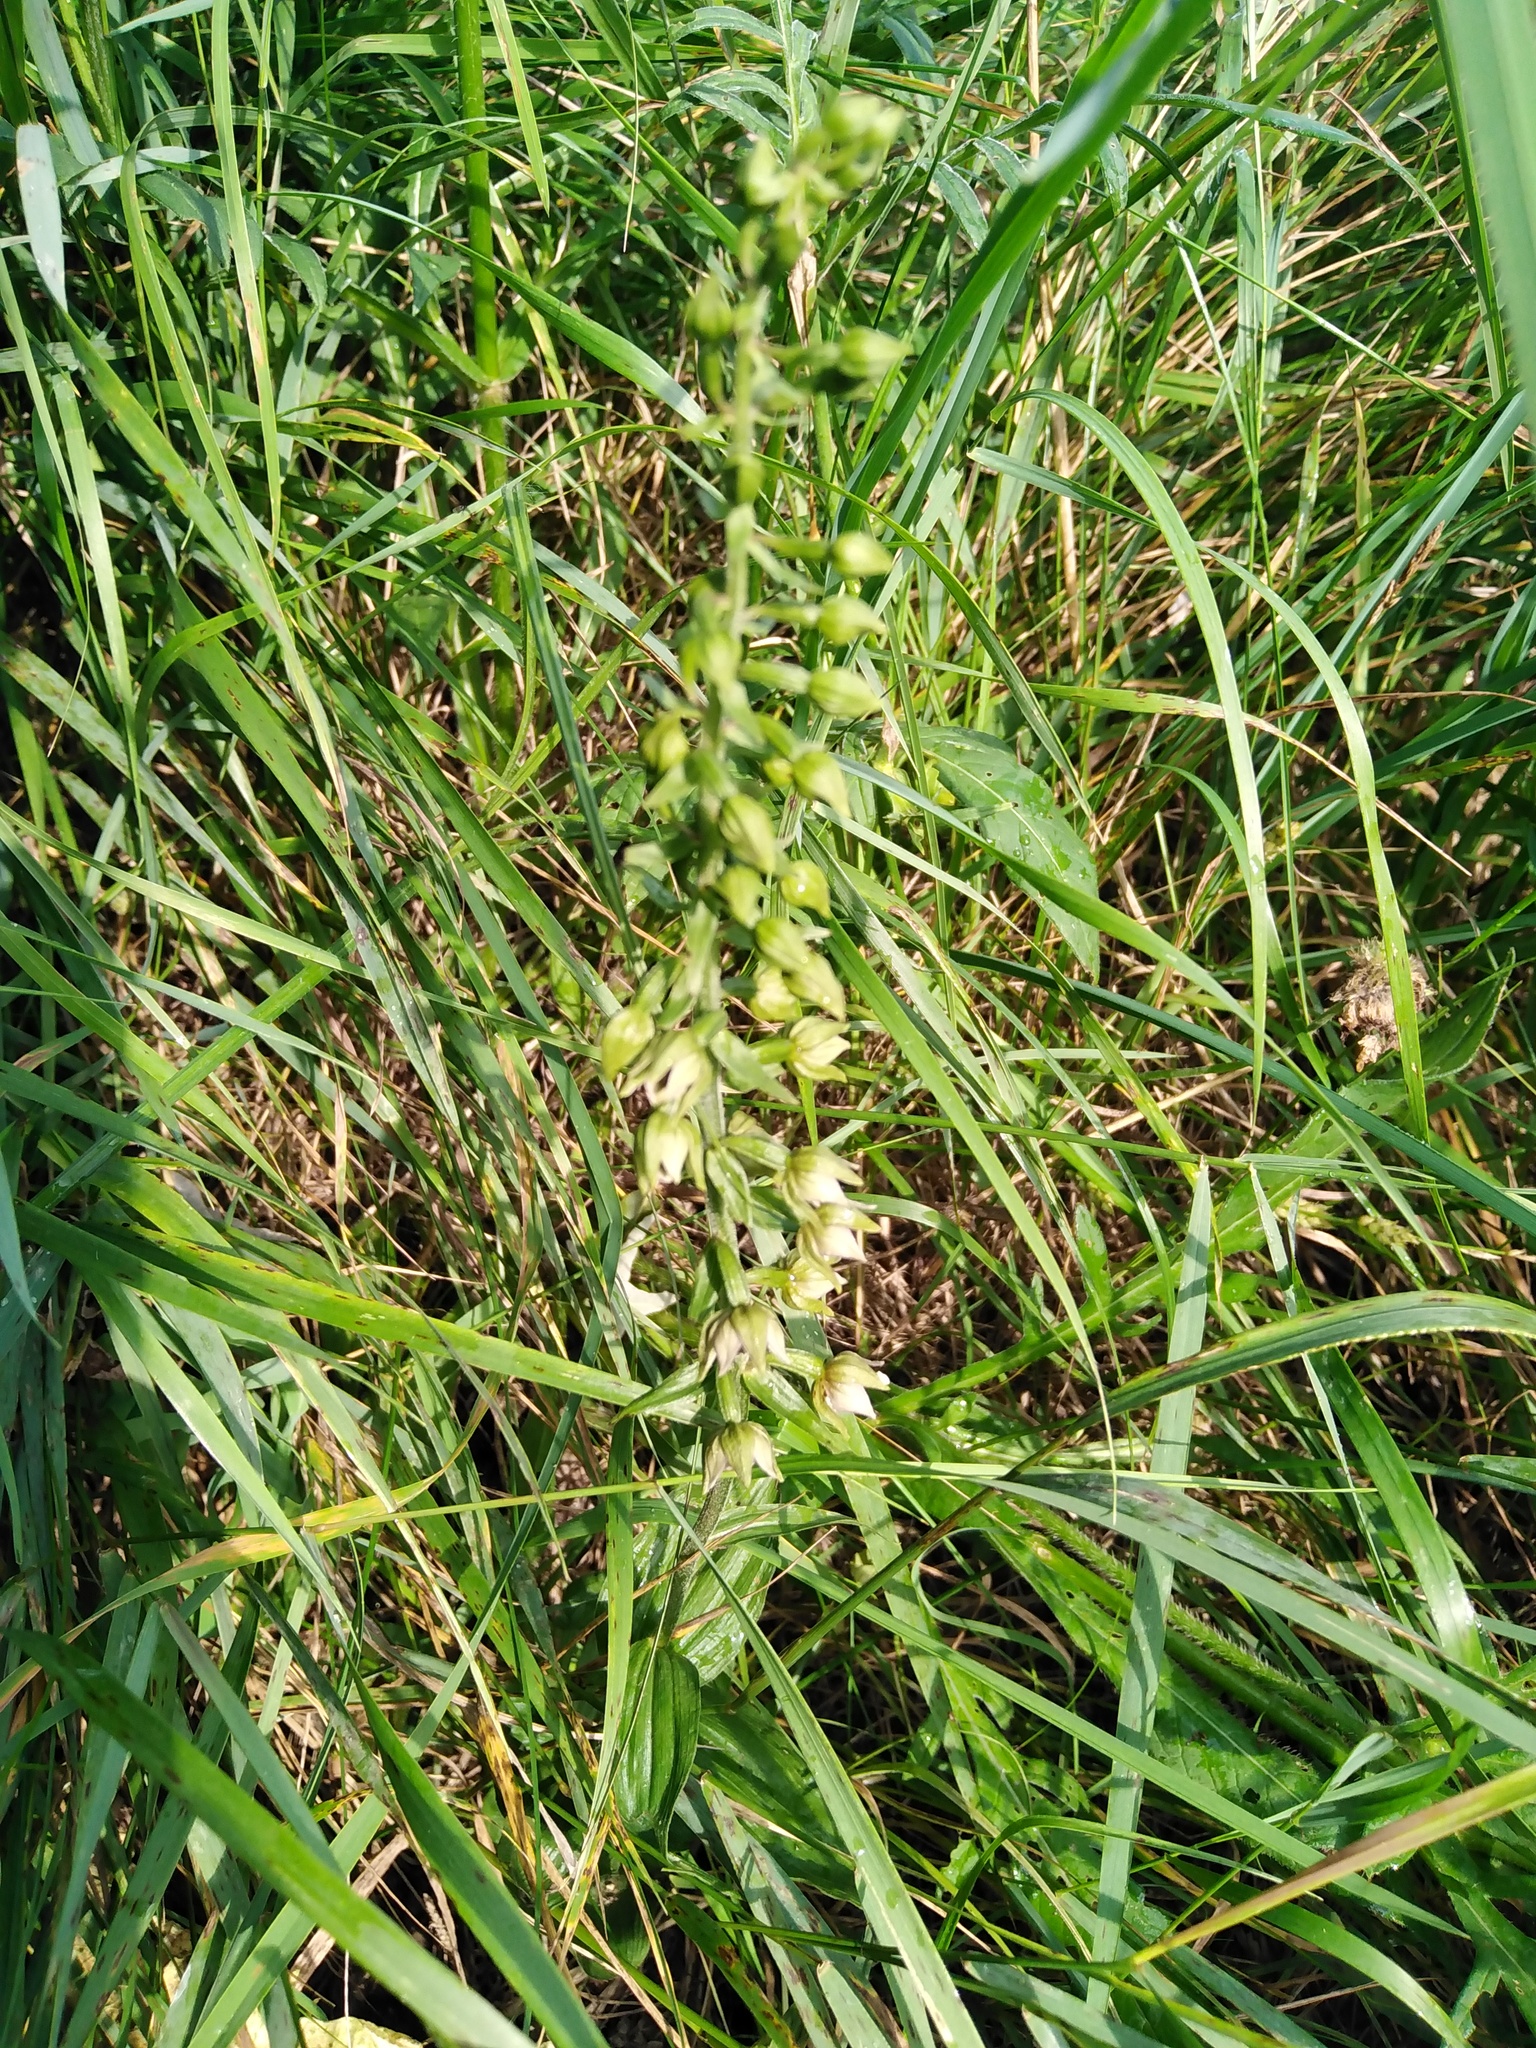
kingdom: Plantae
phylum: Tracheophyta
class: Liliopsida
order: Asparagales
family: Orchidaceae
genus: Epipactis
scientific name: Epipactis helleborine
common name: Broad-leaved helleborine
